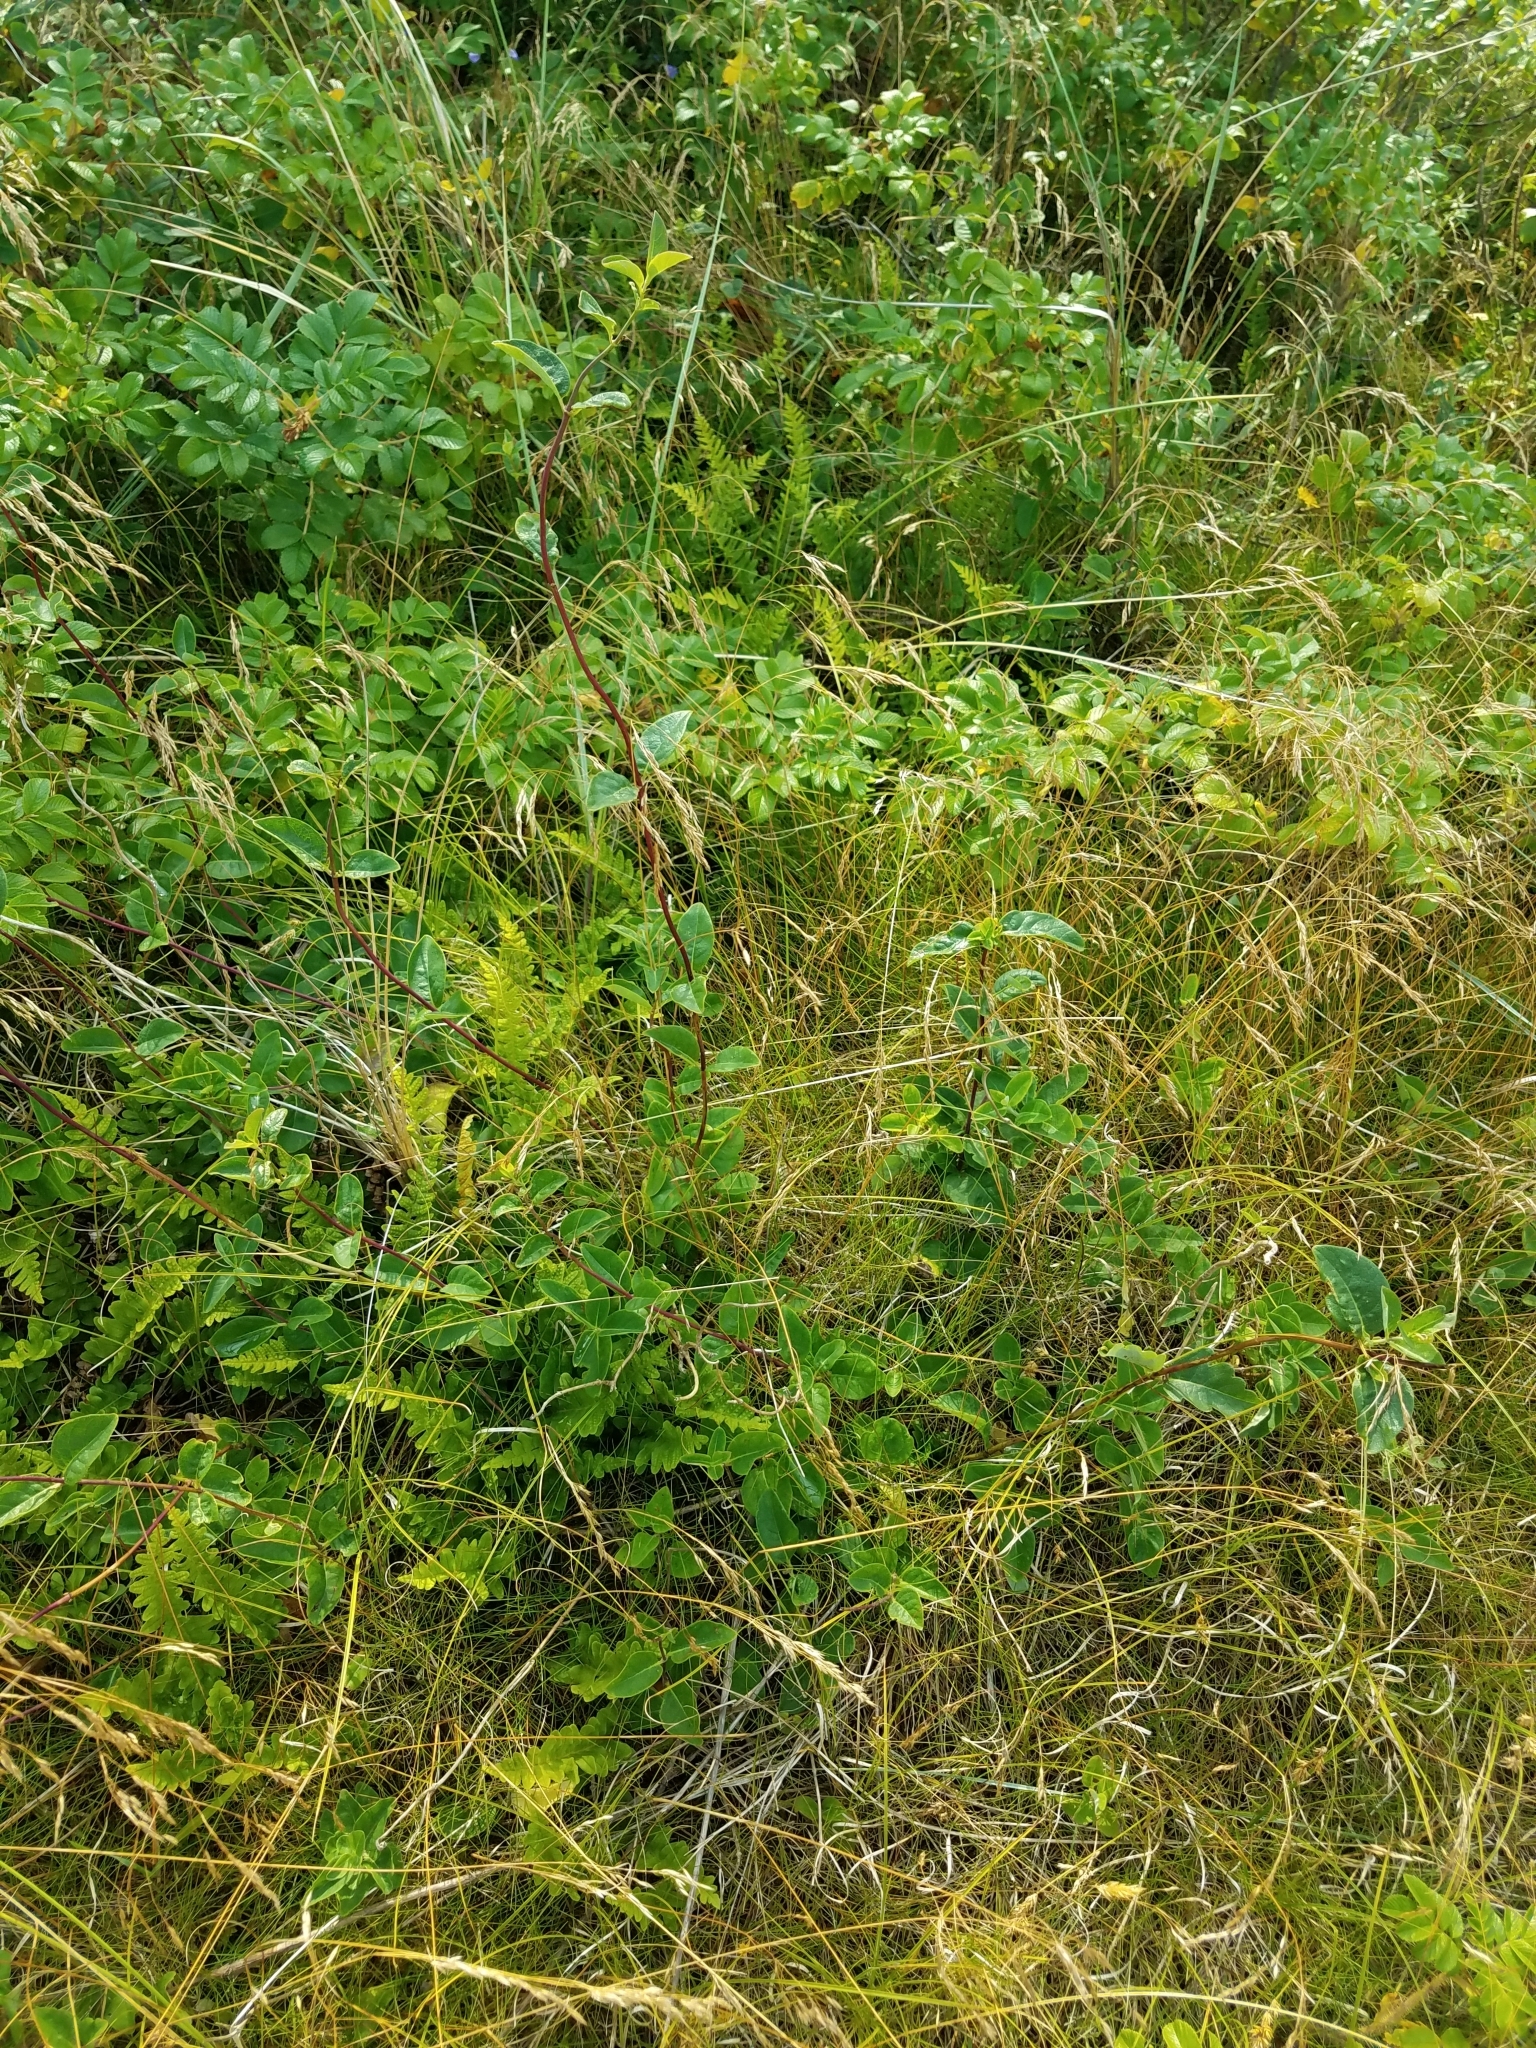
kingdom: Plantae
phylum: Tracheophyta
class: Magnoliopsida
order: Dipsacales
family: Caprifoliaceae
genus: Lonicera
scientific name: Lonicera periclymenum
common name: European honeysuckle
